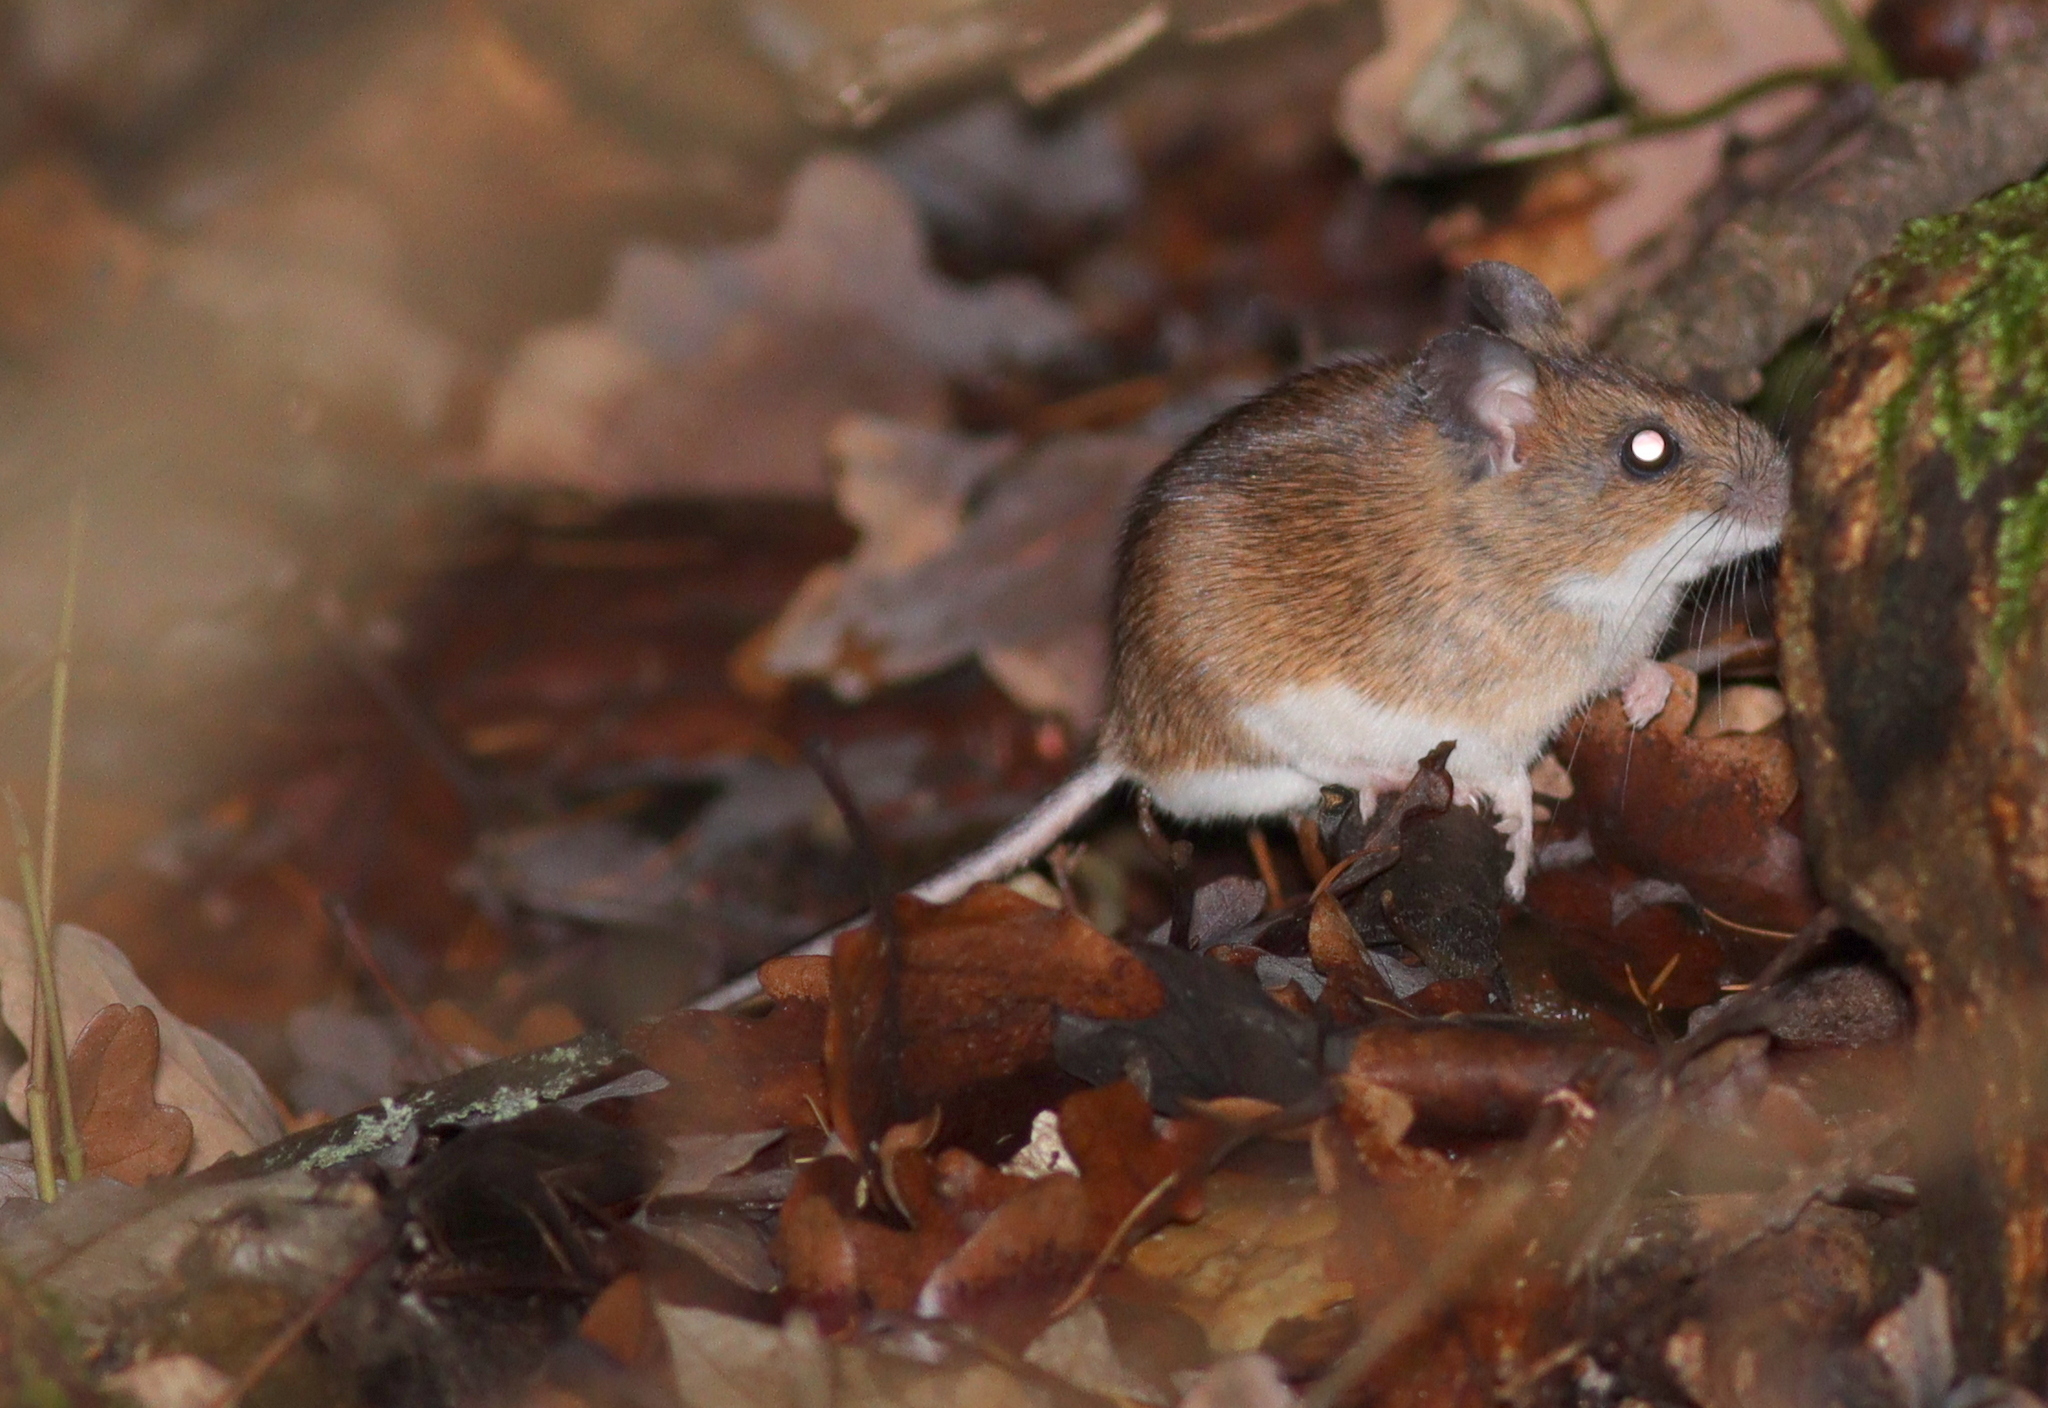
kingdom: Animalia
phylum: Chordata
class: Mammalia
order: Rodentia
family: Muridae
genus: Apodemus
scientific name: Apodemus flavicollis
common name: Yellow-necked field mouse
